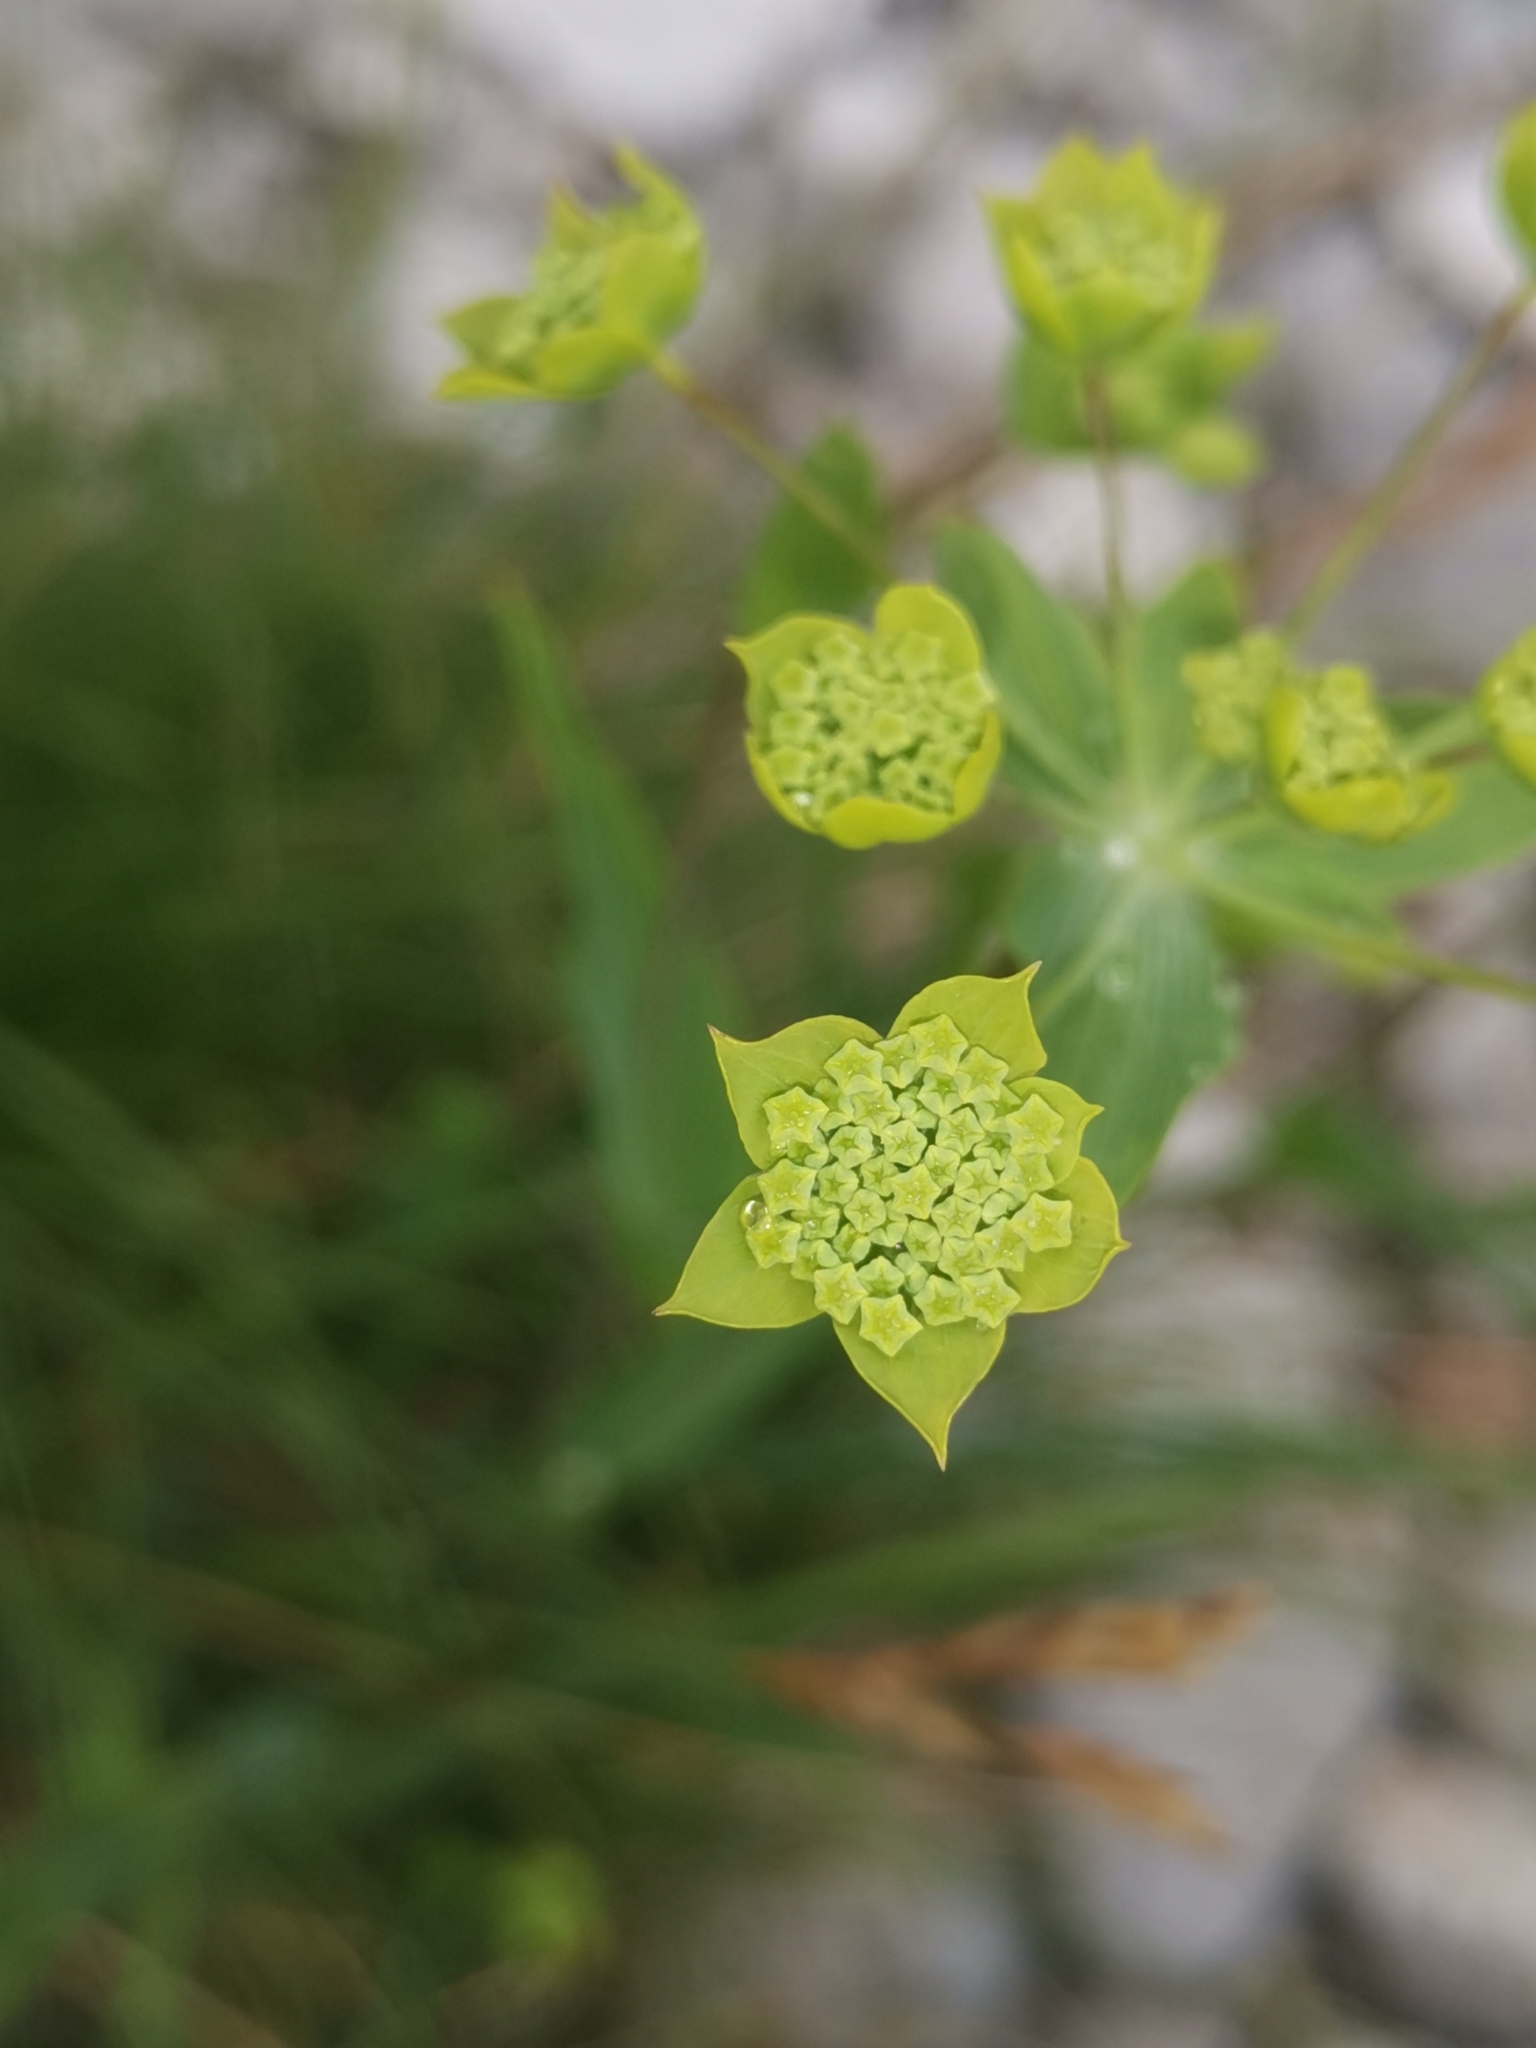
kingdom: Plantae
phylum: Tracheophyta
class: Magnoliopsida
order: Apiales
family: Apiaceae
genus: Bupleurum
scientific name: Bupleurum ranunculoides
